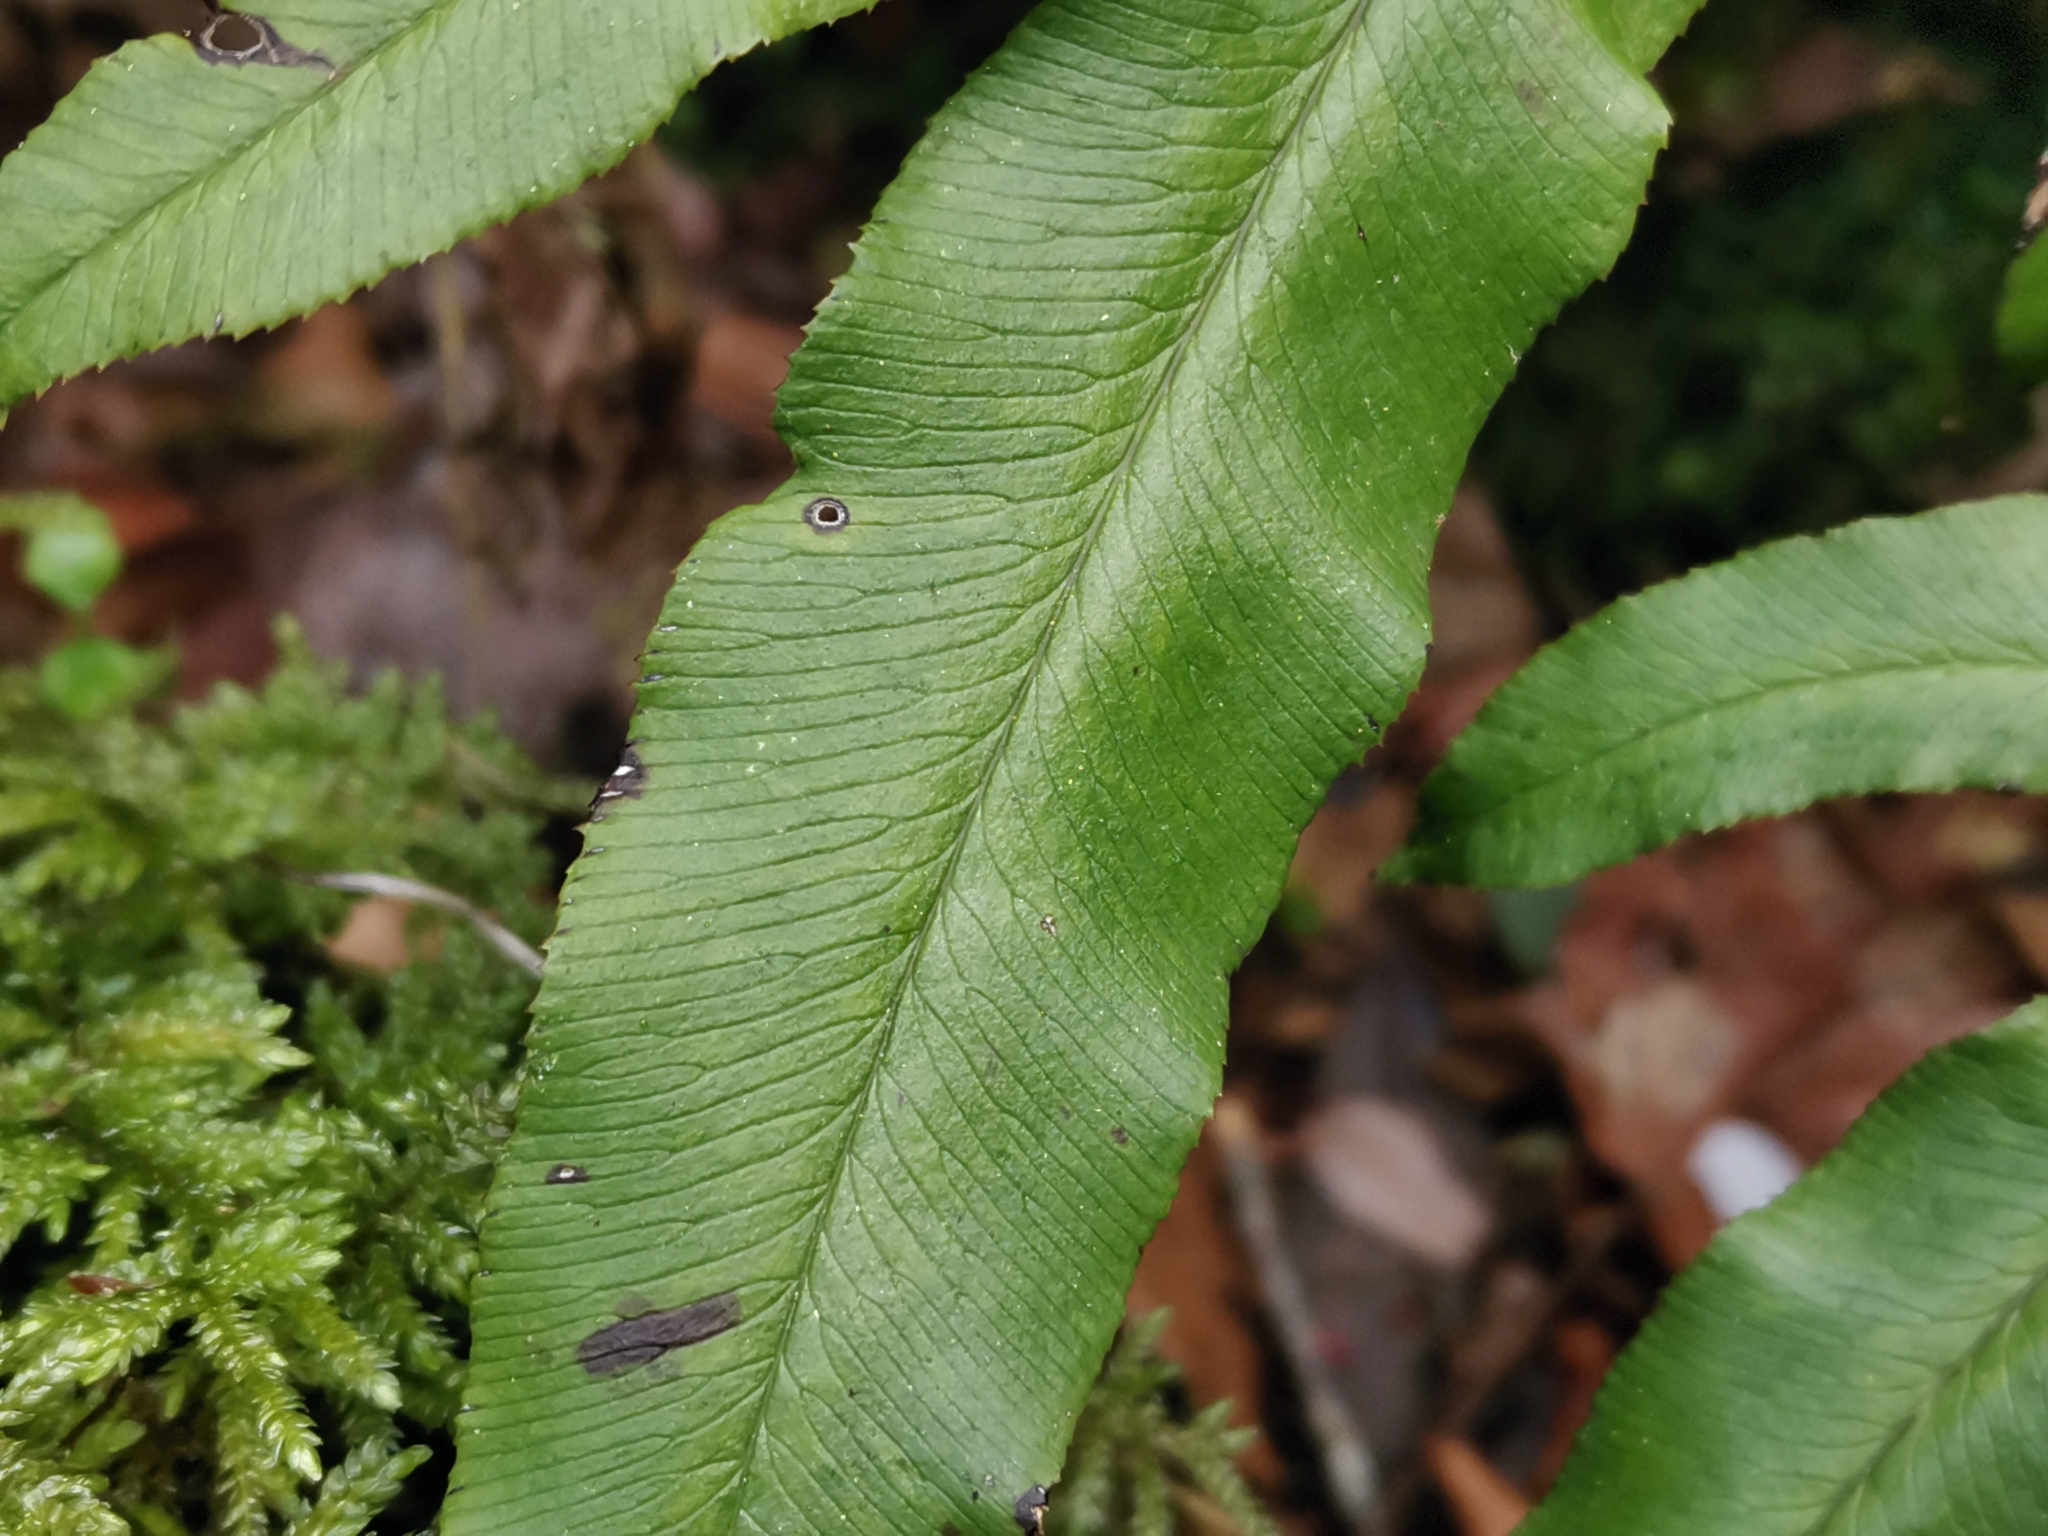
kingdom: Plantae
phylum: Tracheophyta
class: Polypodiopsida
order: Polypodiales
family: Pteridaceae
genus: Coniogramme
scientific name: Coniogramme intermedia
